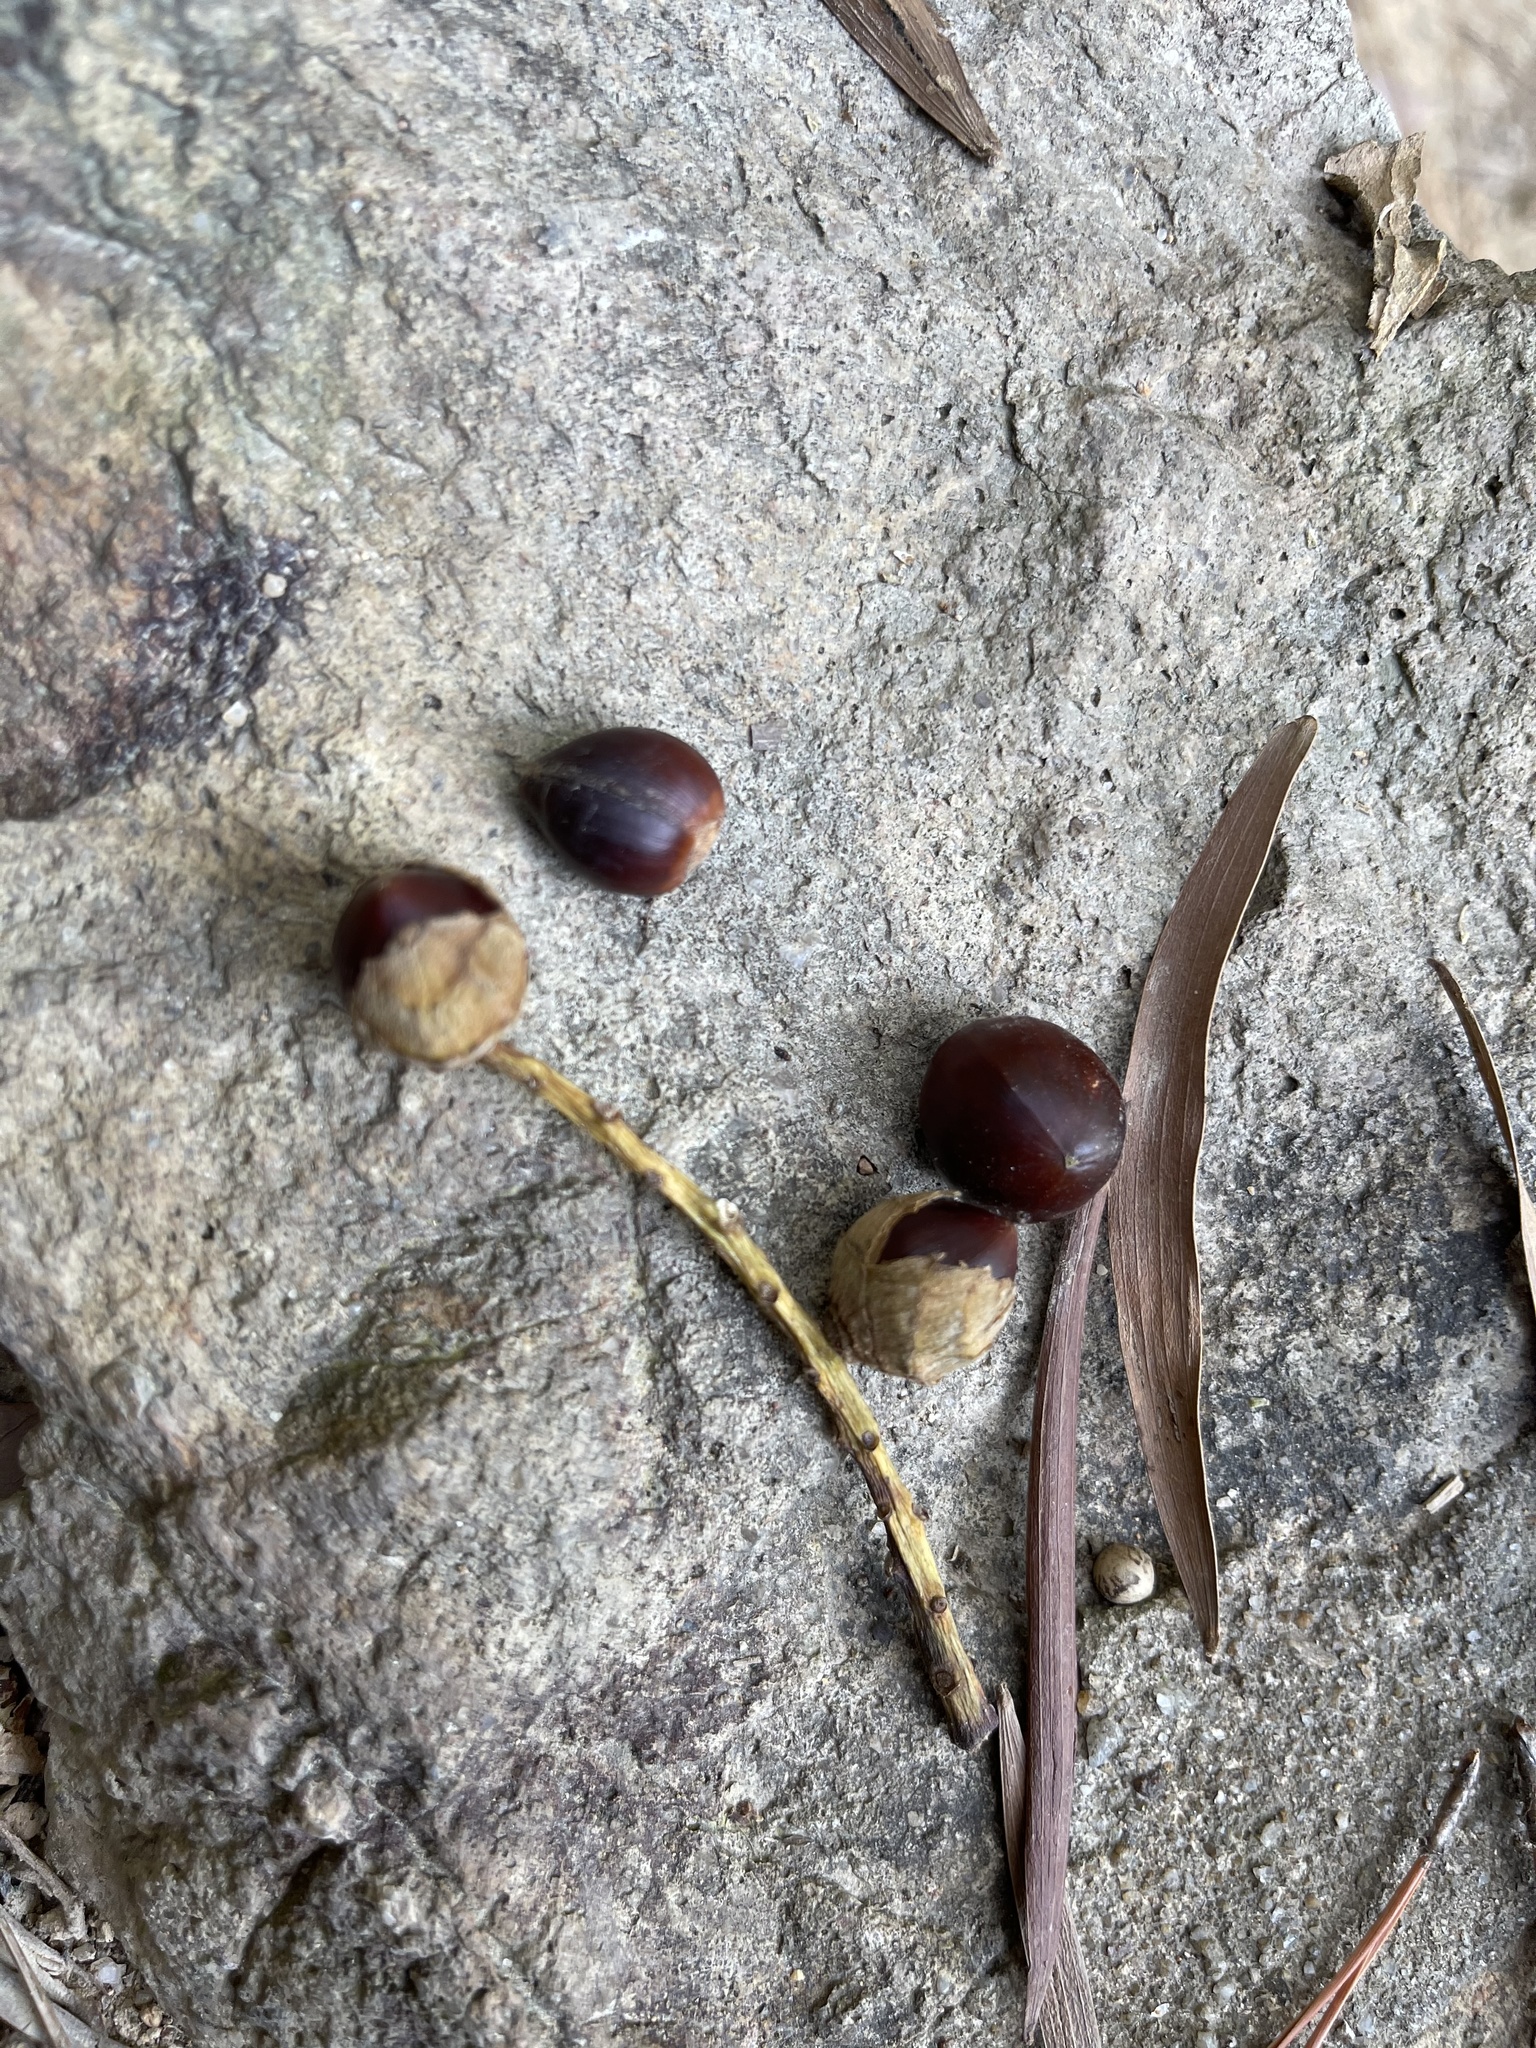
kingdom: Plantae
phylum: Tracheophyta
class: Magnoliopsida
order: Fagales
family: Fagaceae
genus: Castanopsis
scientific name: Castanopsis fissa
